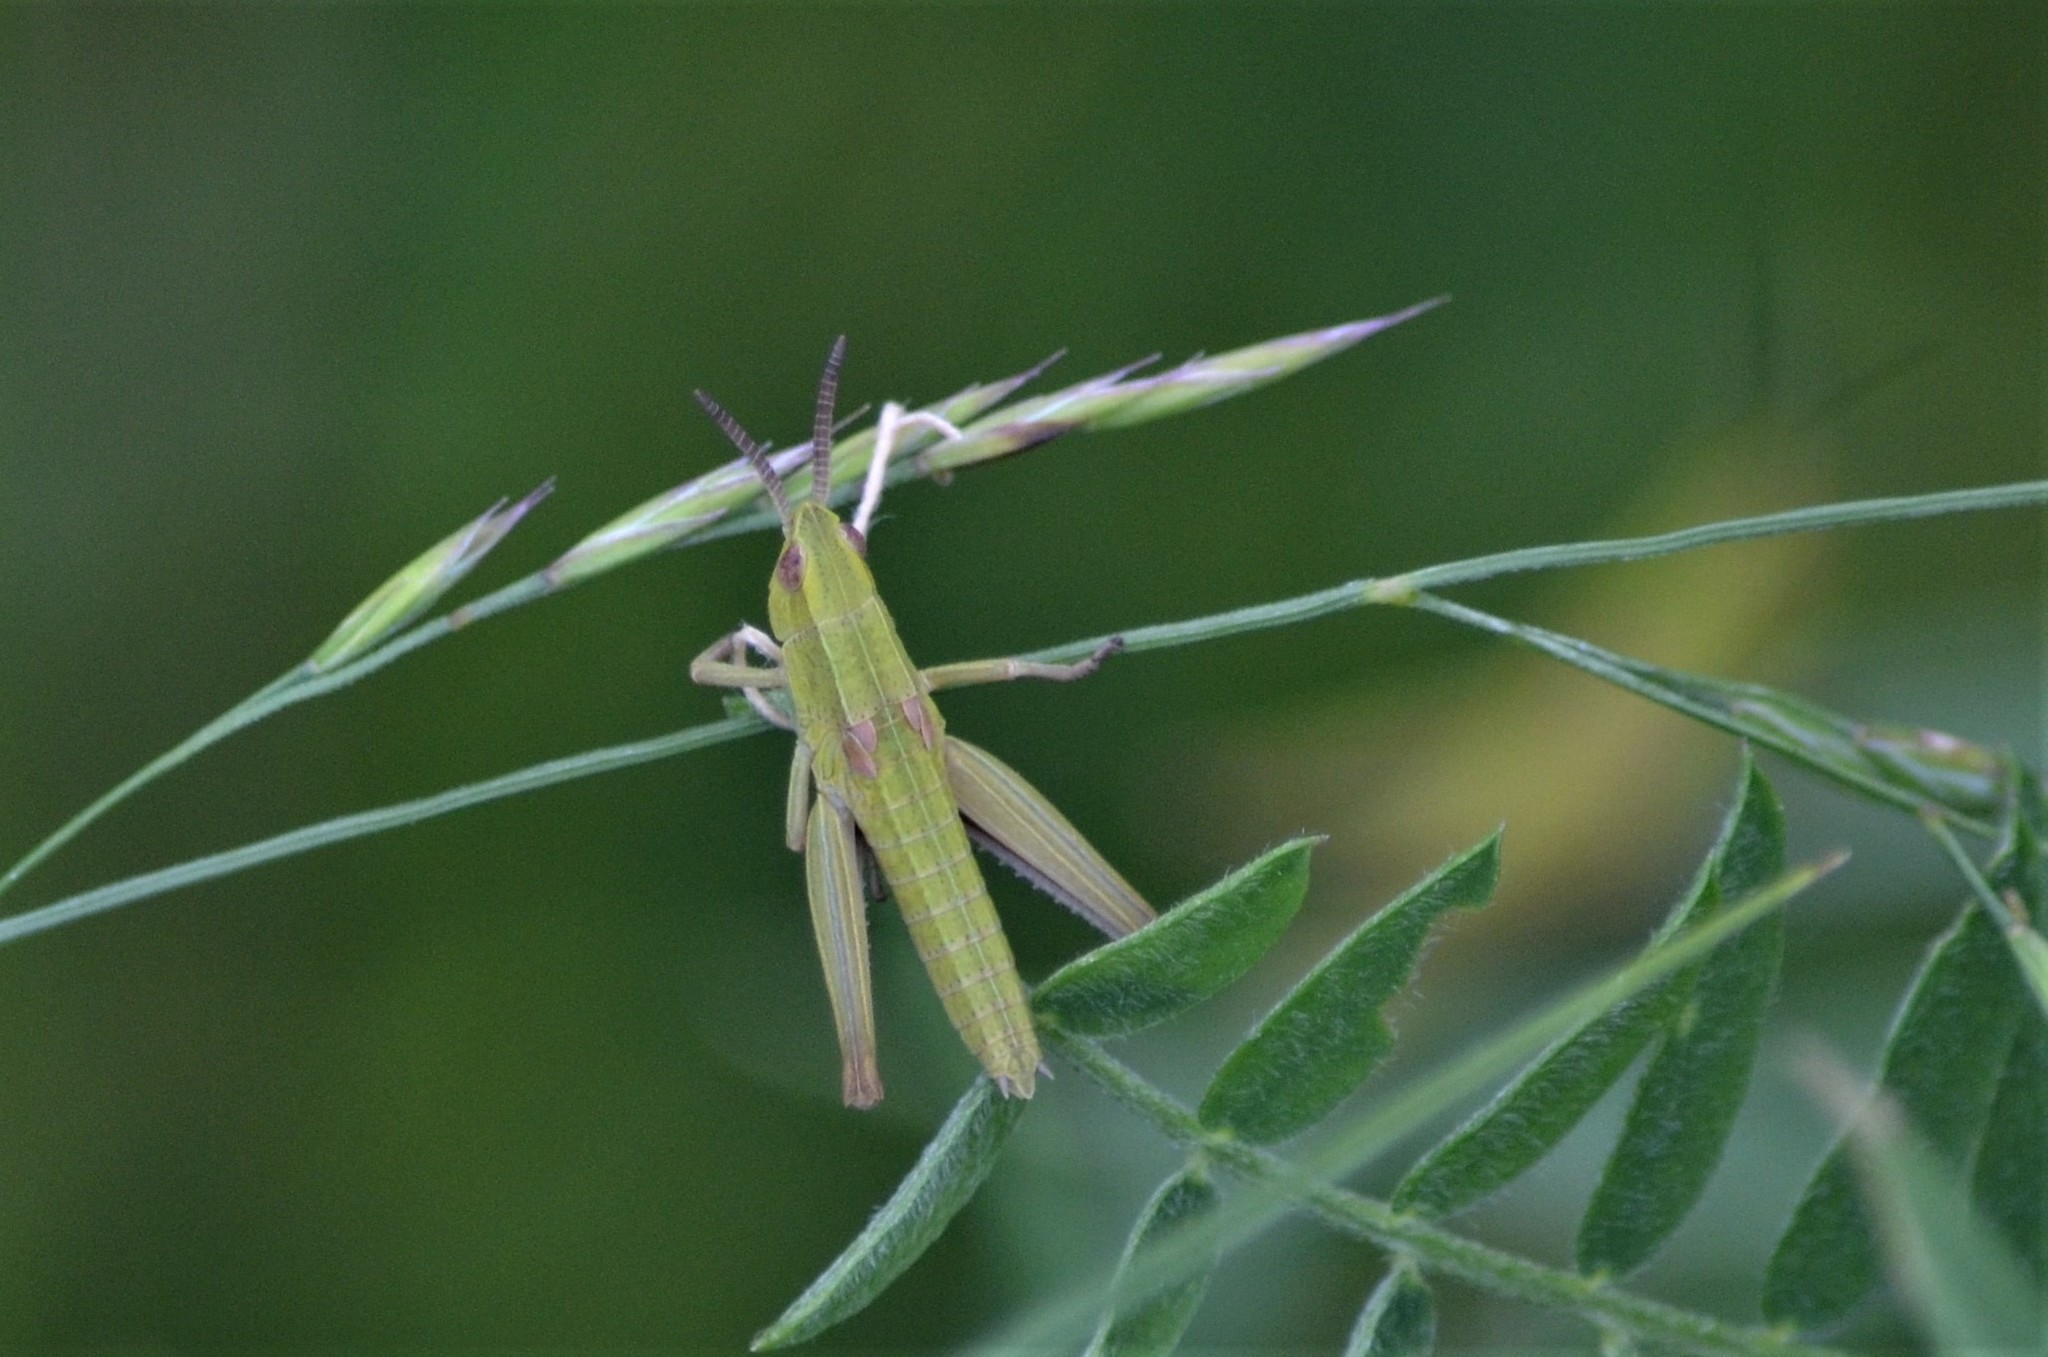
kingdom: Animalia
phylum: Arthropoda
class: Insecta
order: Orthoptera
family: Acrididae
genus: Euthystira
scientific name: Euthystira brachyptera
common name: Small gold grasshopper
